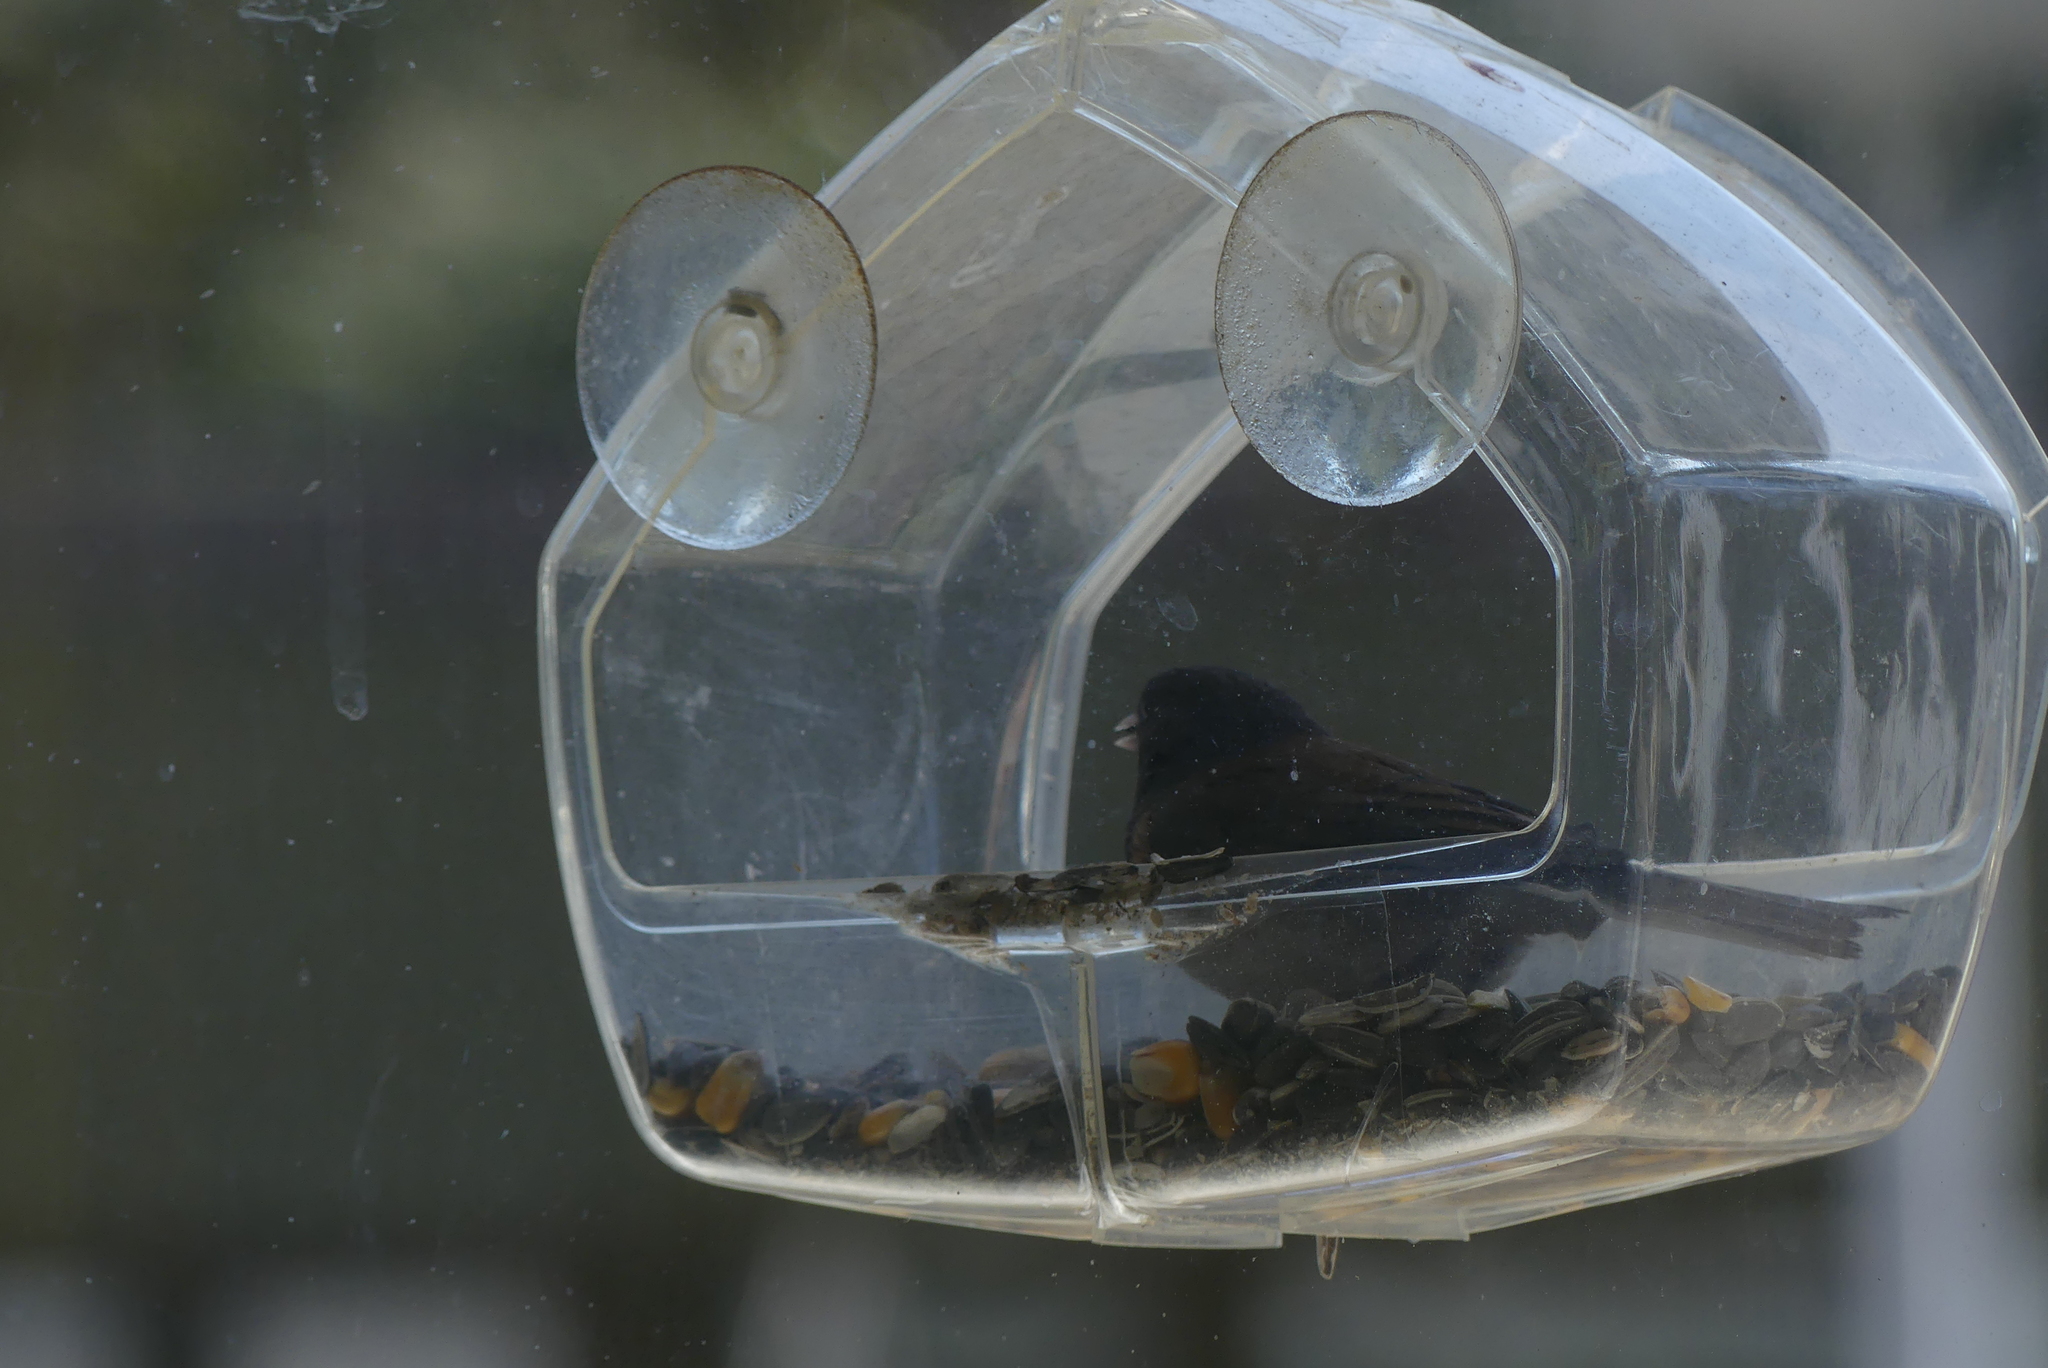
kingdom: Animalia
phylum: Chordata
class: Aves
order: Passeriformes
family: Passerellidae
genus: Junco
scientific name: Junco hyemalis
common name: Dark-eyed junco
